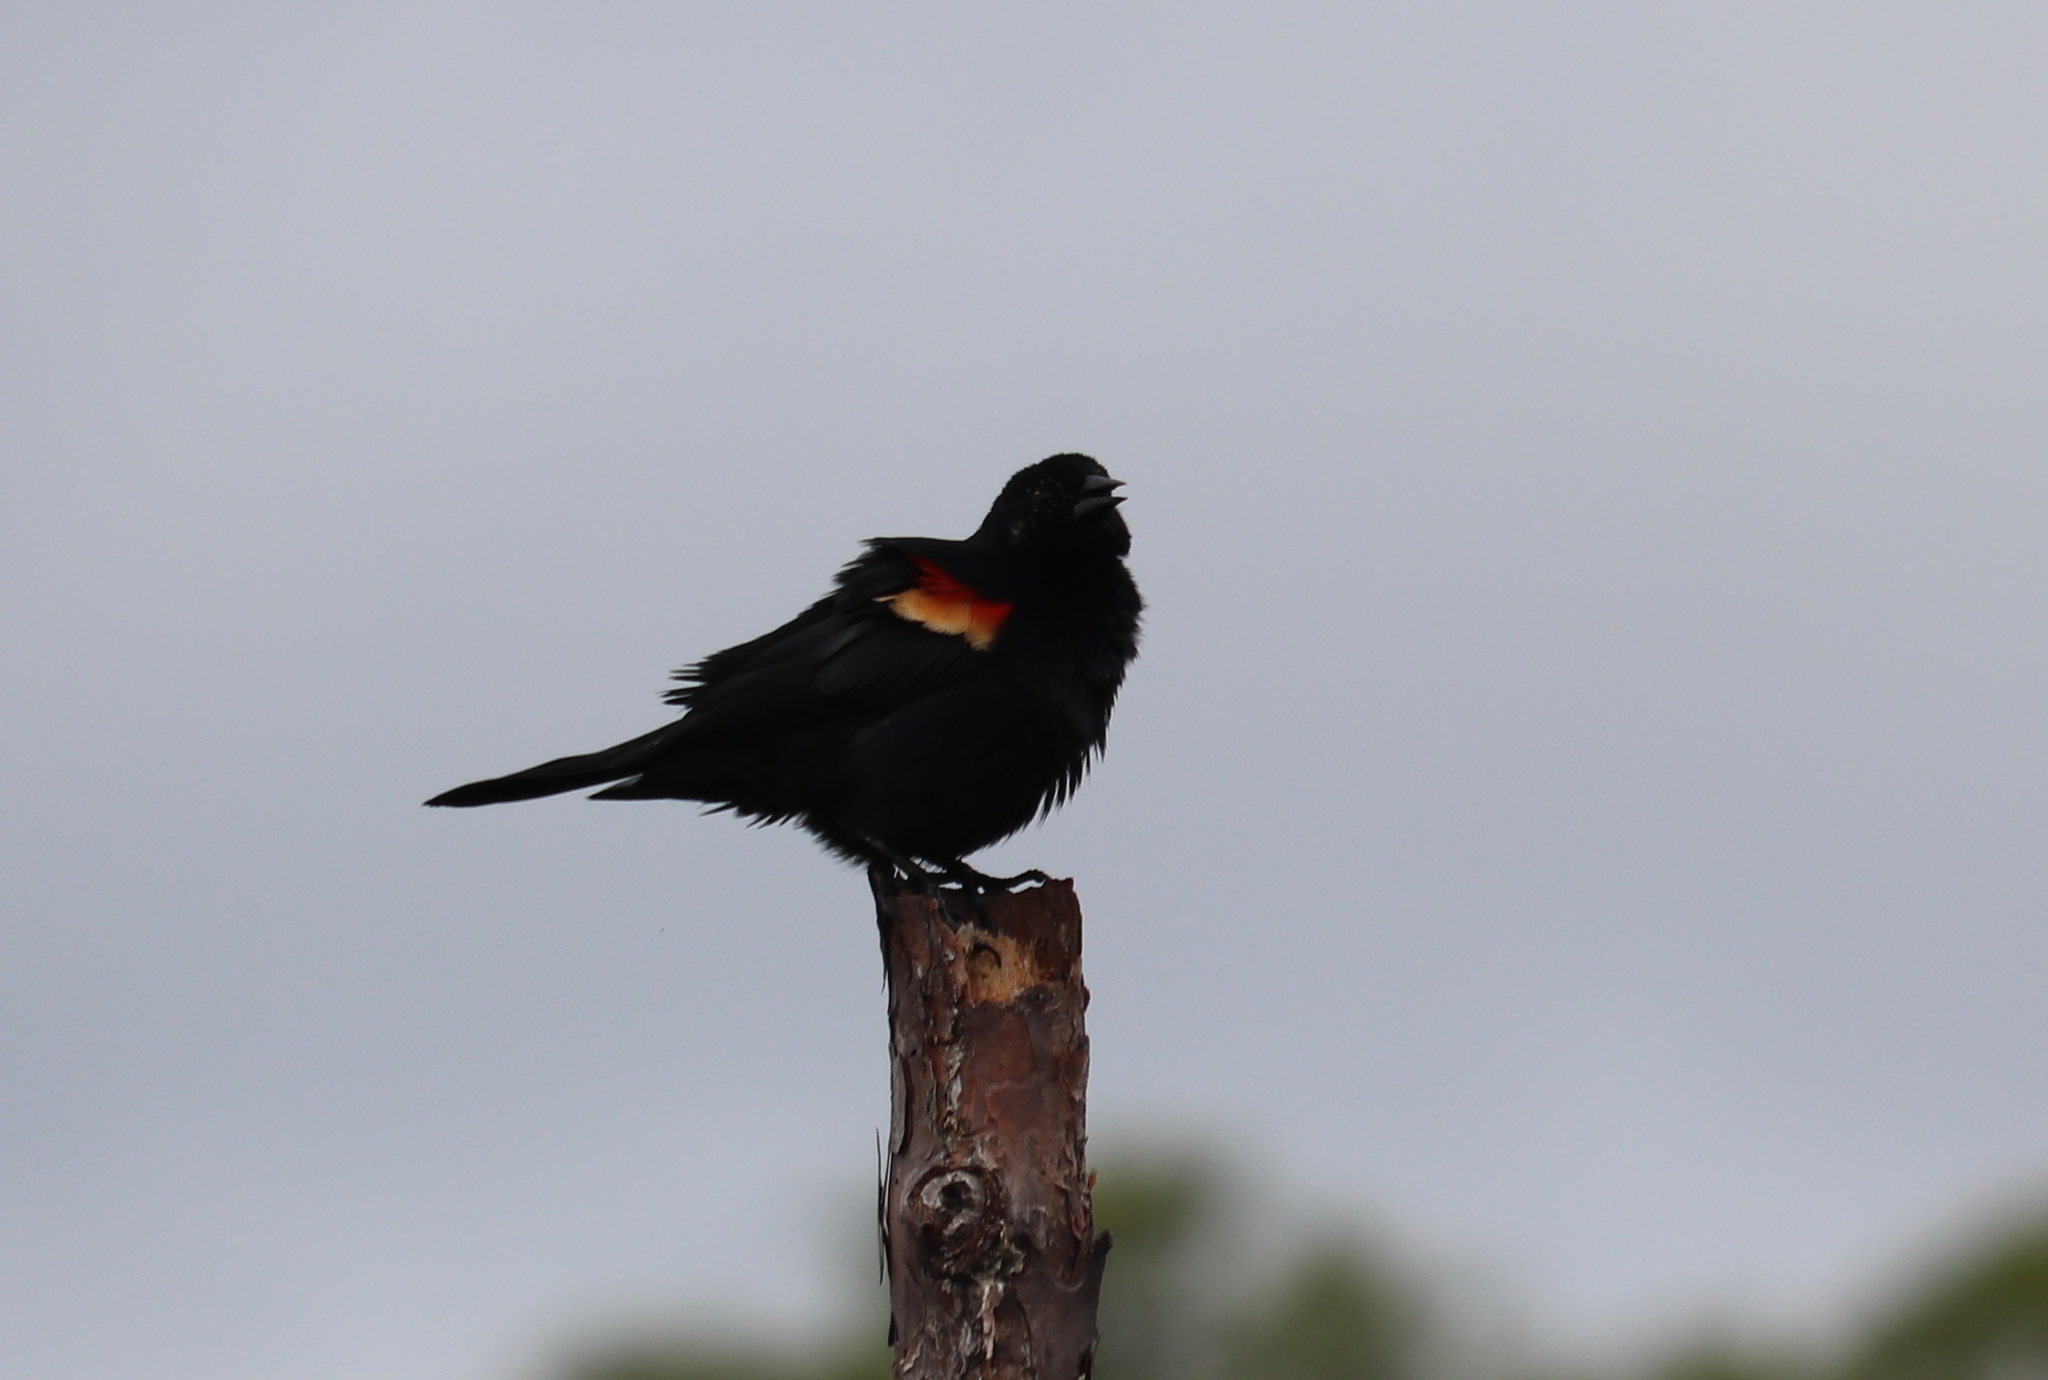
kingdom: Animalia
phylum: Chordata
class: Aves
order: Passeriformes
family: Icteridae
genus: Agelaius
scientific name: Agelaius phoeniceus
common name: Red-winged blackbird
